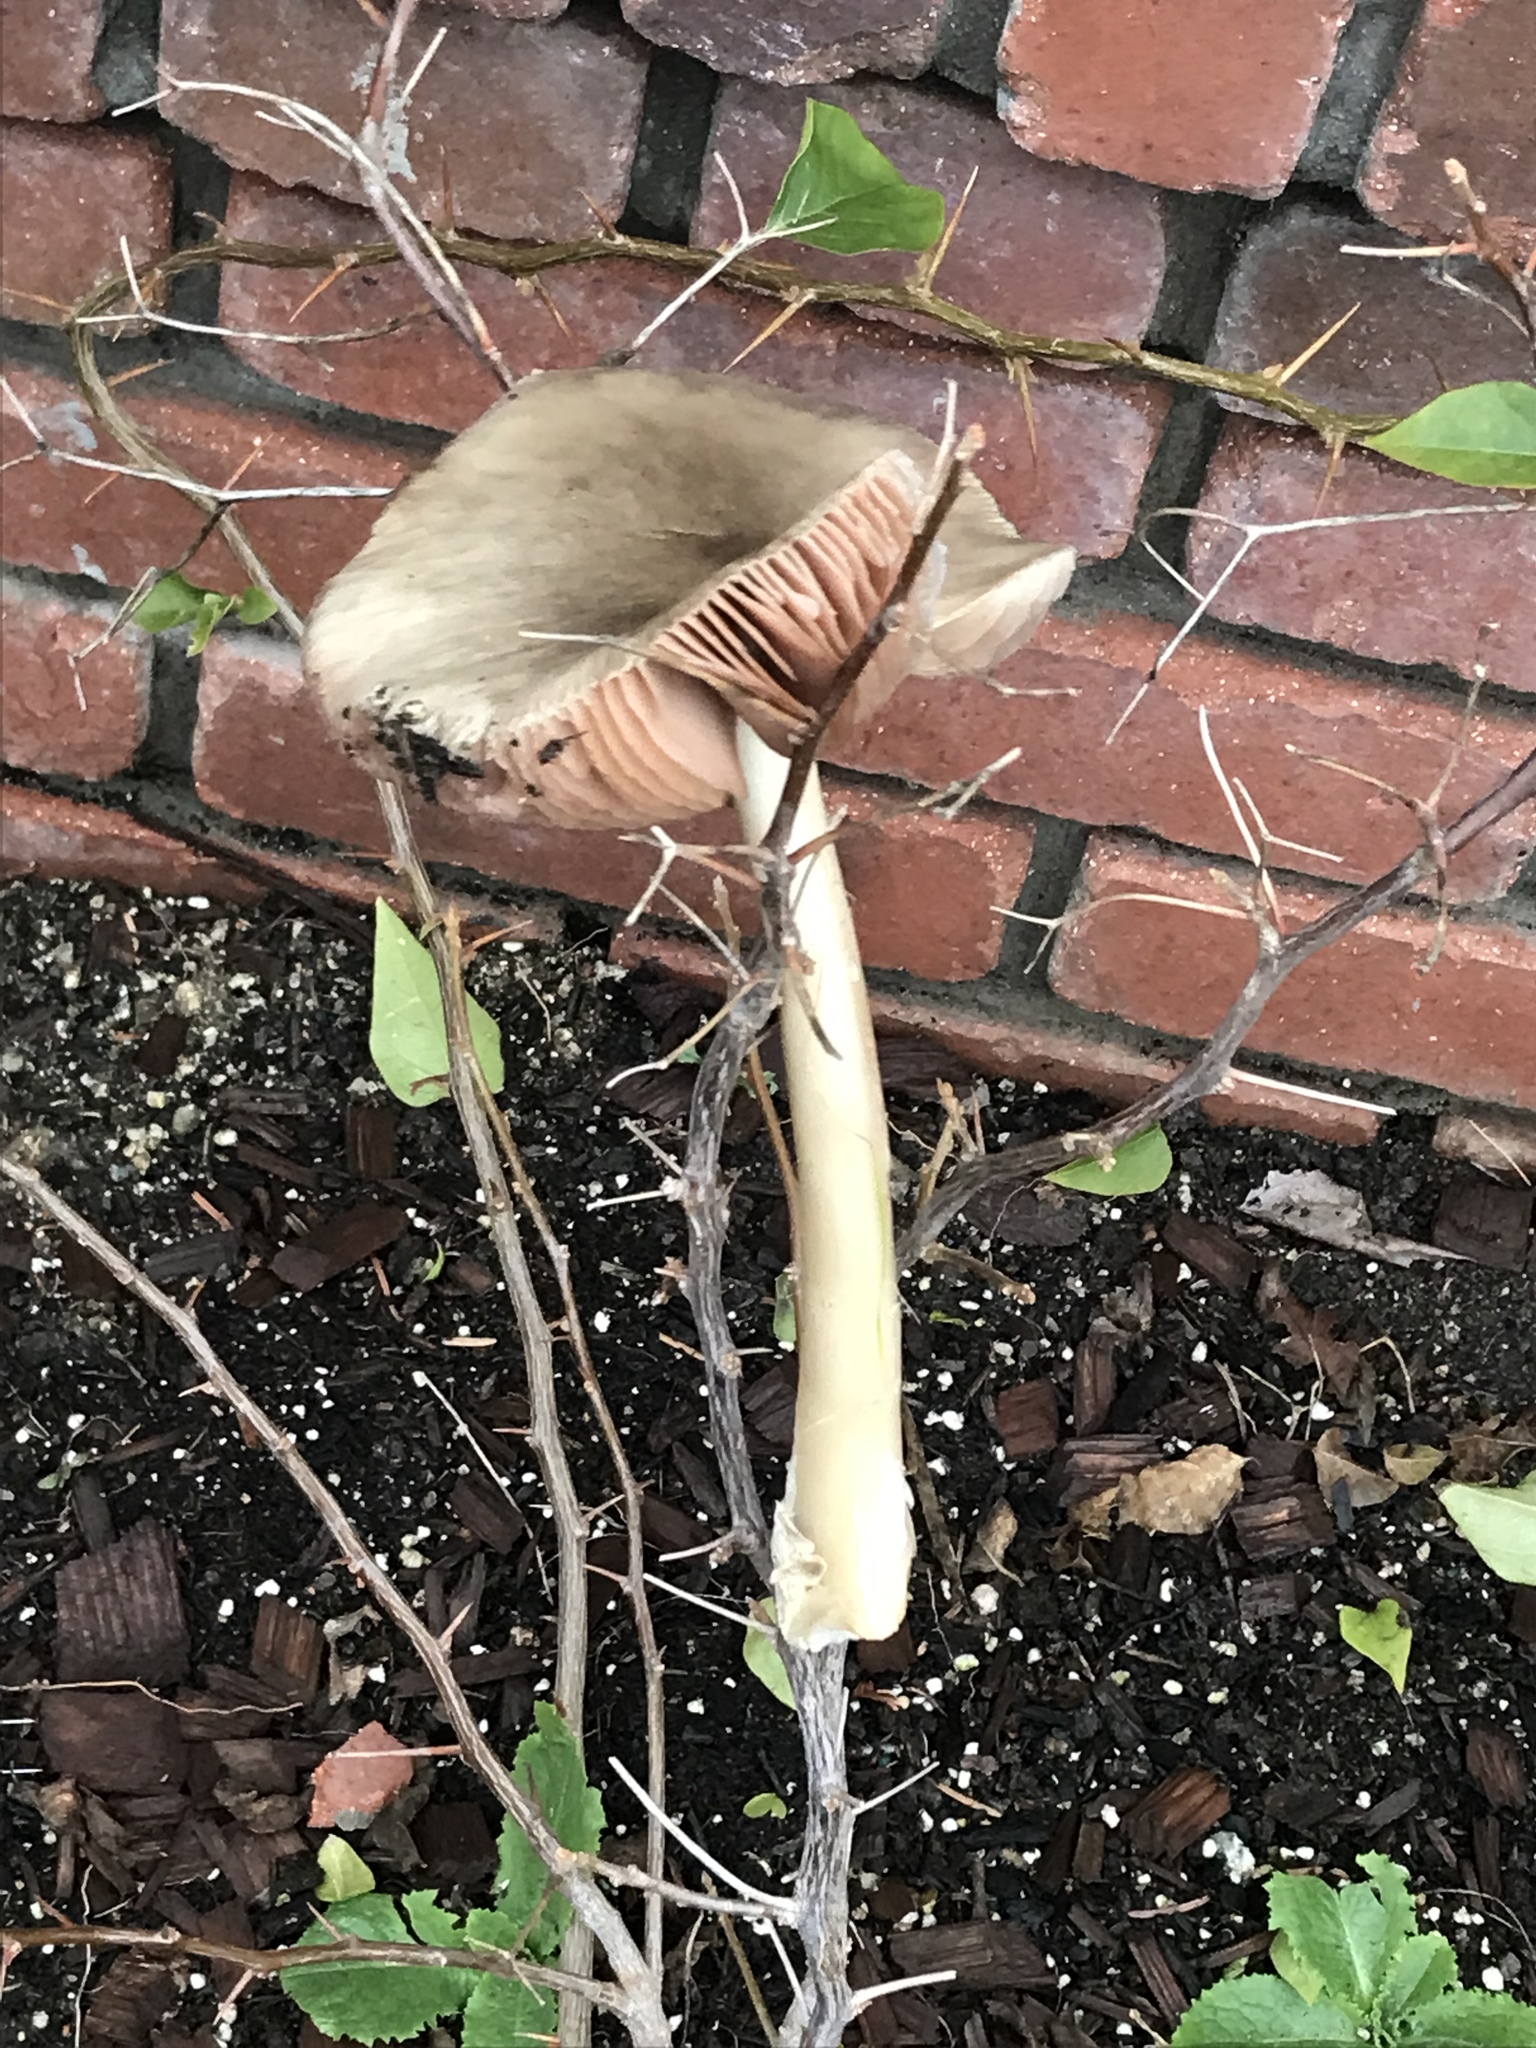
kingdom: Fungi
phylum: Basidiomycota
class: Agaricomycetes
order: Agaricales
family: Pluteaceae
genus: Volvopluteus
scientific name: Volvopluteus gloiocephalus
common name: Stubble rosegill
